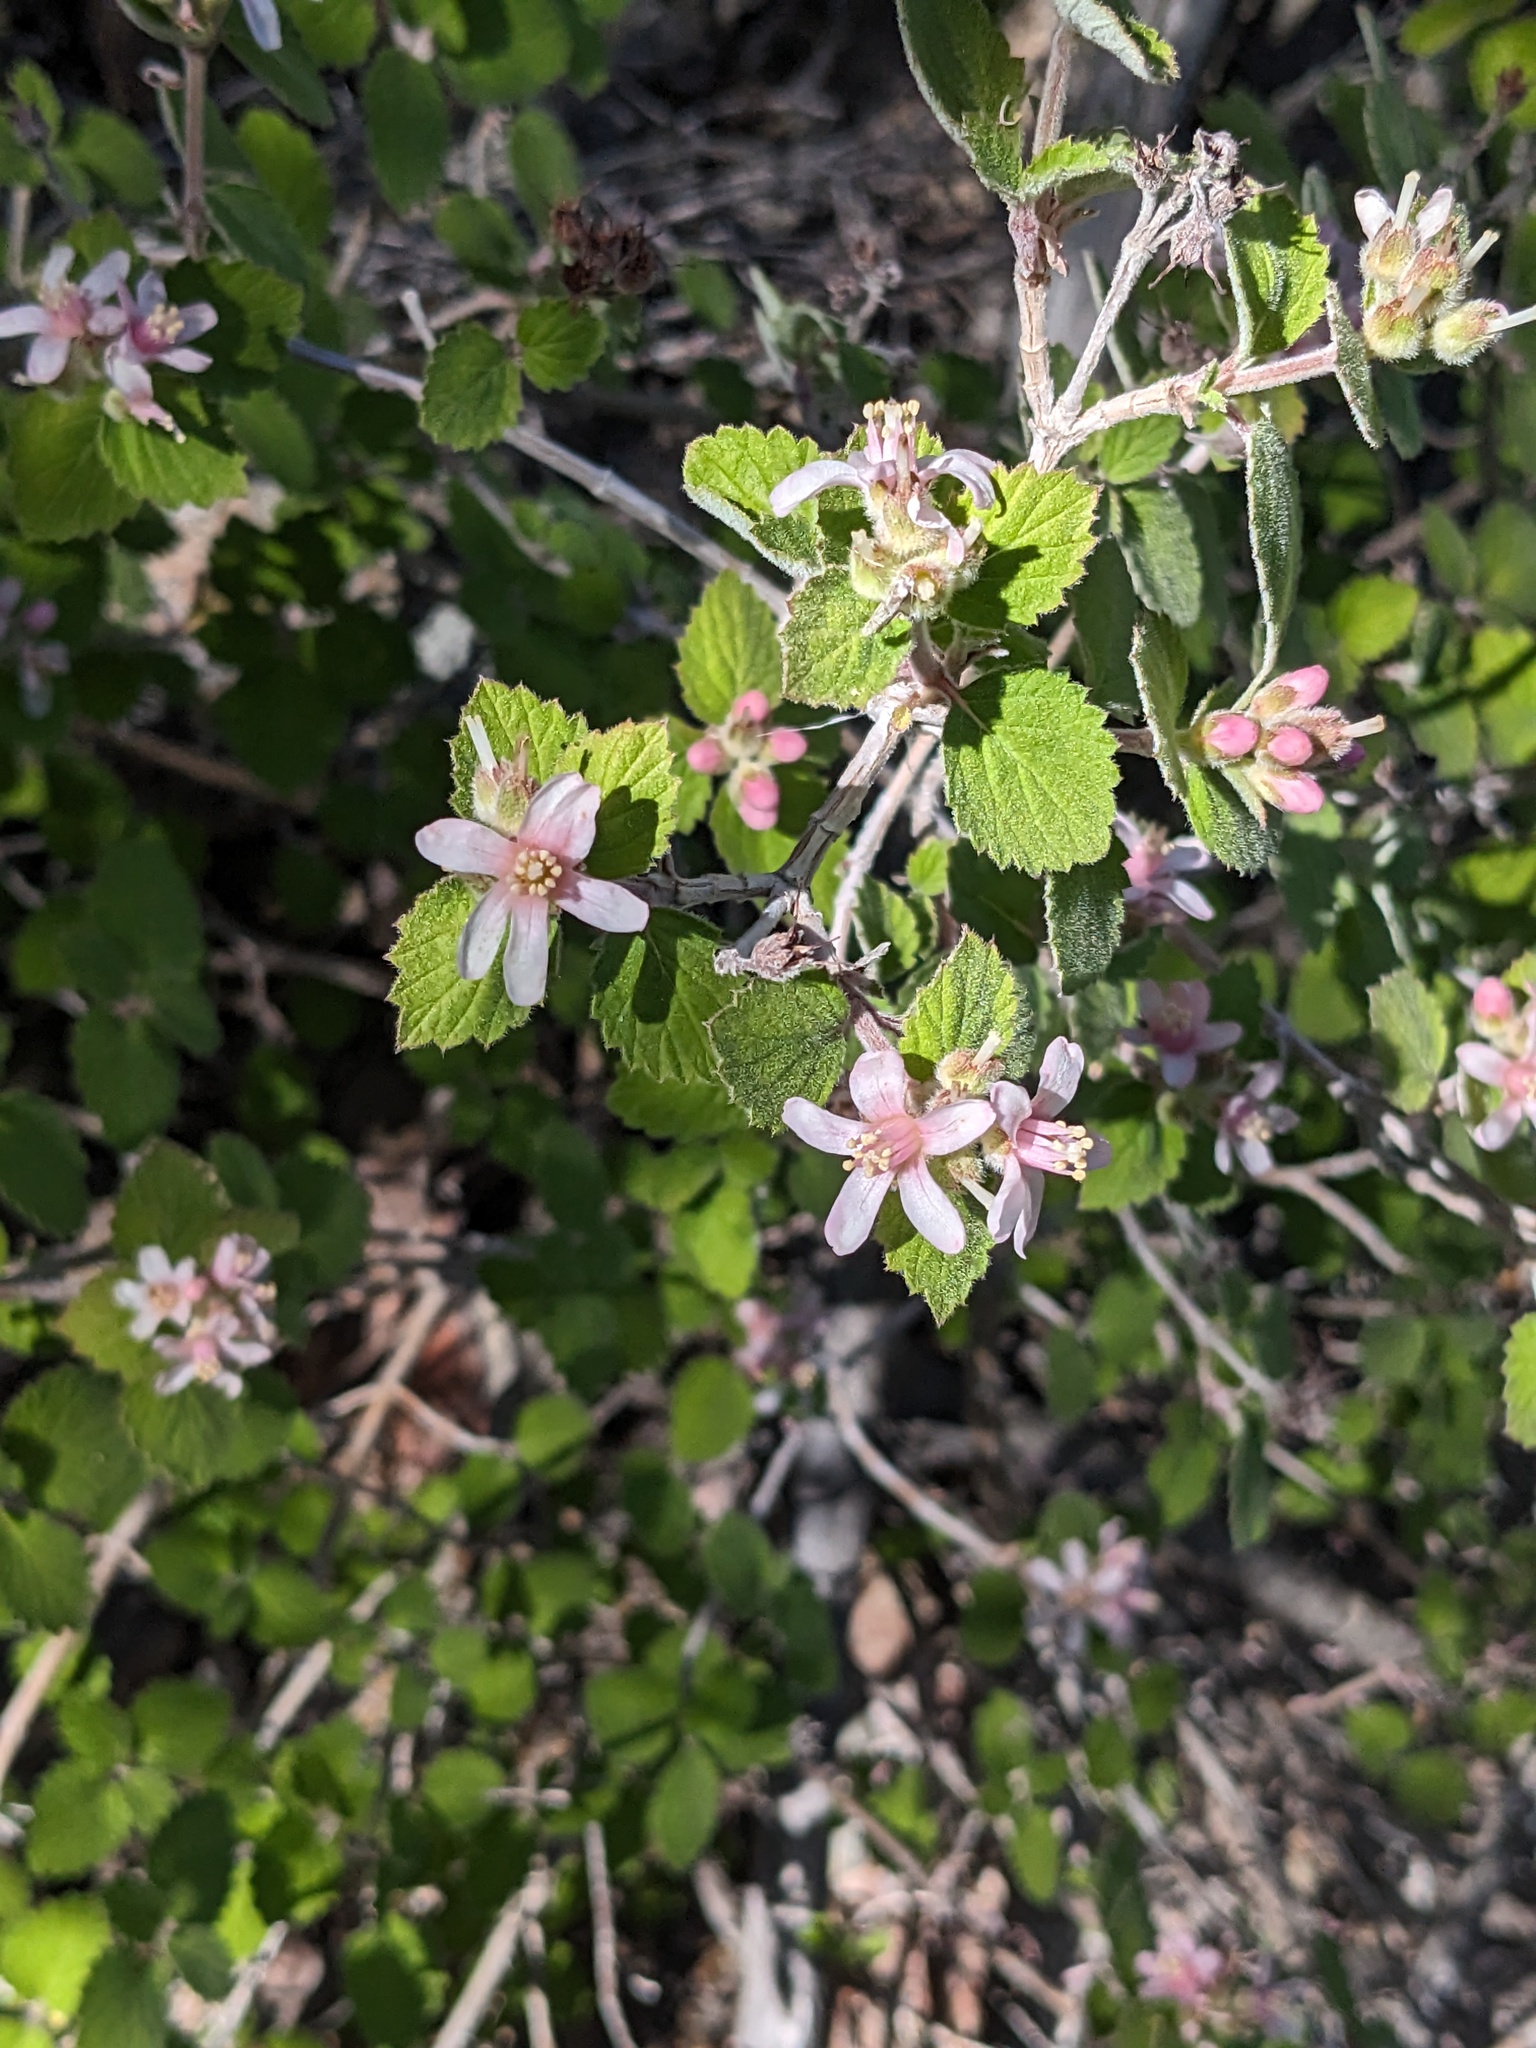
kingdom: Plantae
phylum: Tracheophyta
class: Magnoliopsida
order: Cornales
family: Hydrangeaceae
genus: Jamesia
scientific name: Jamesia americana
